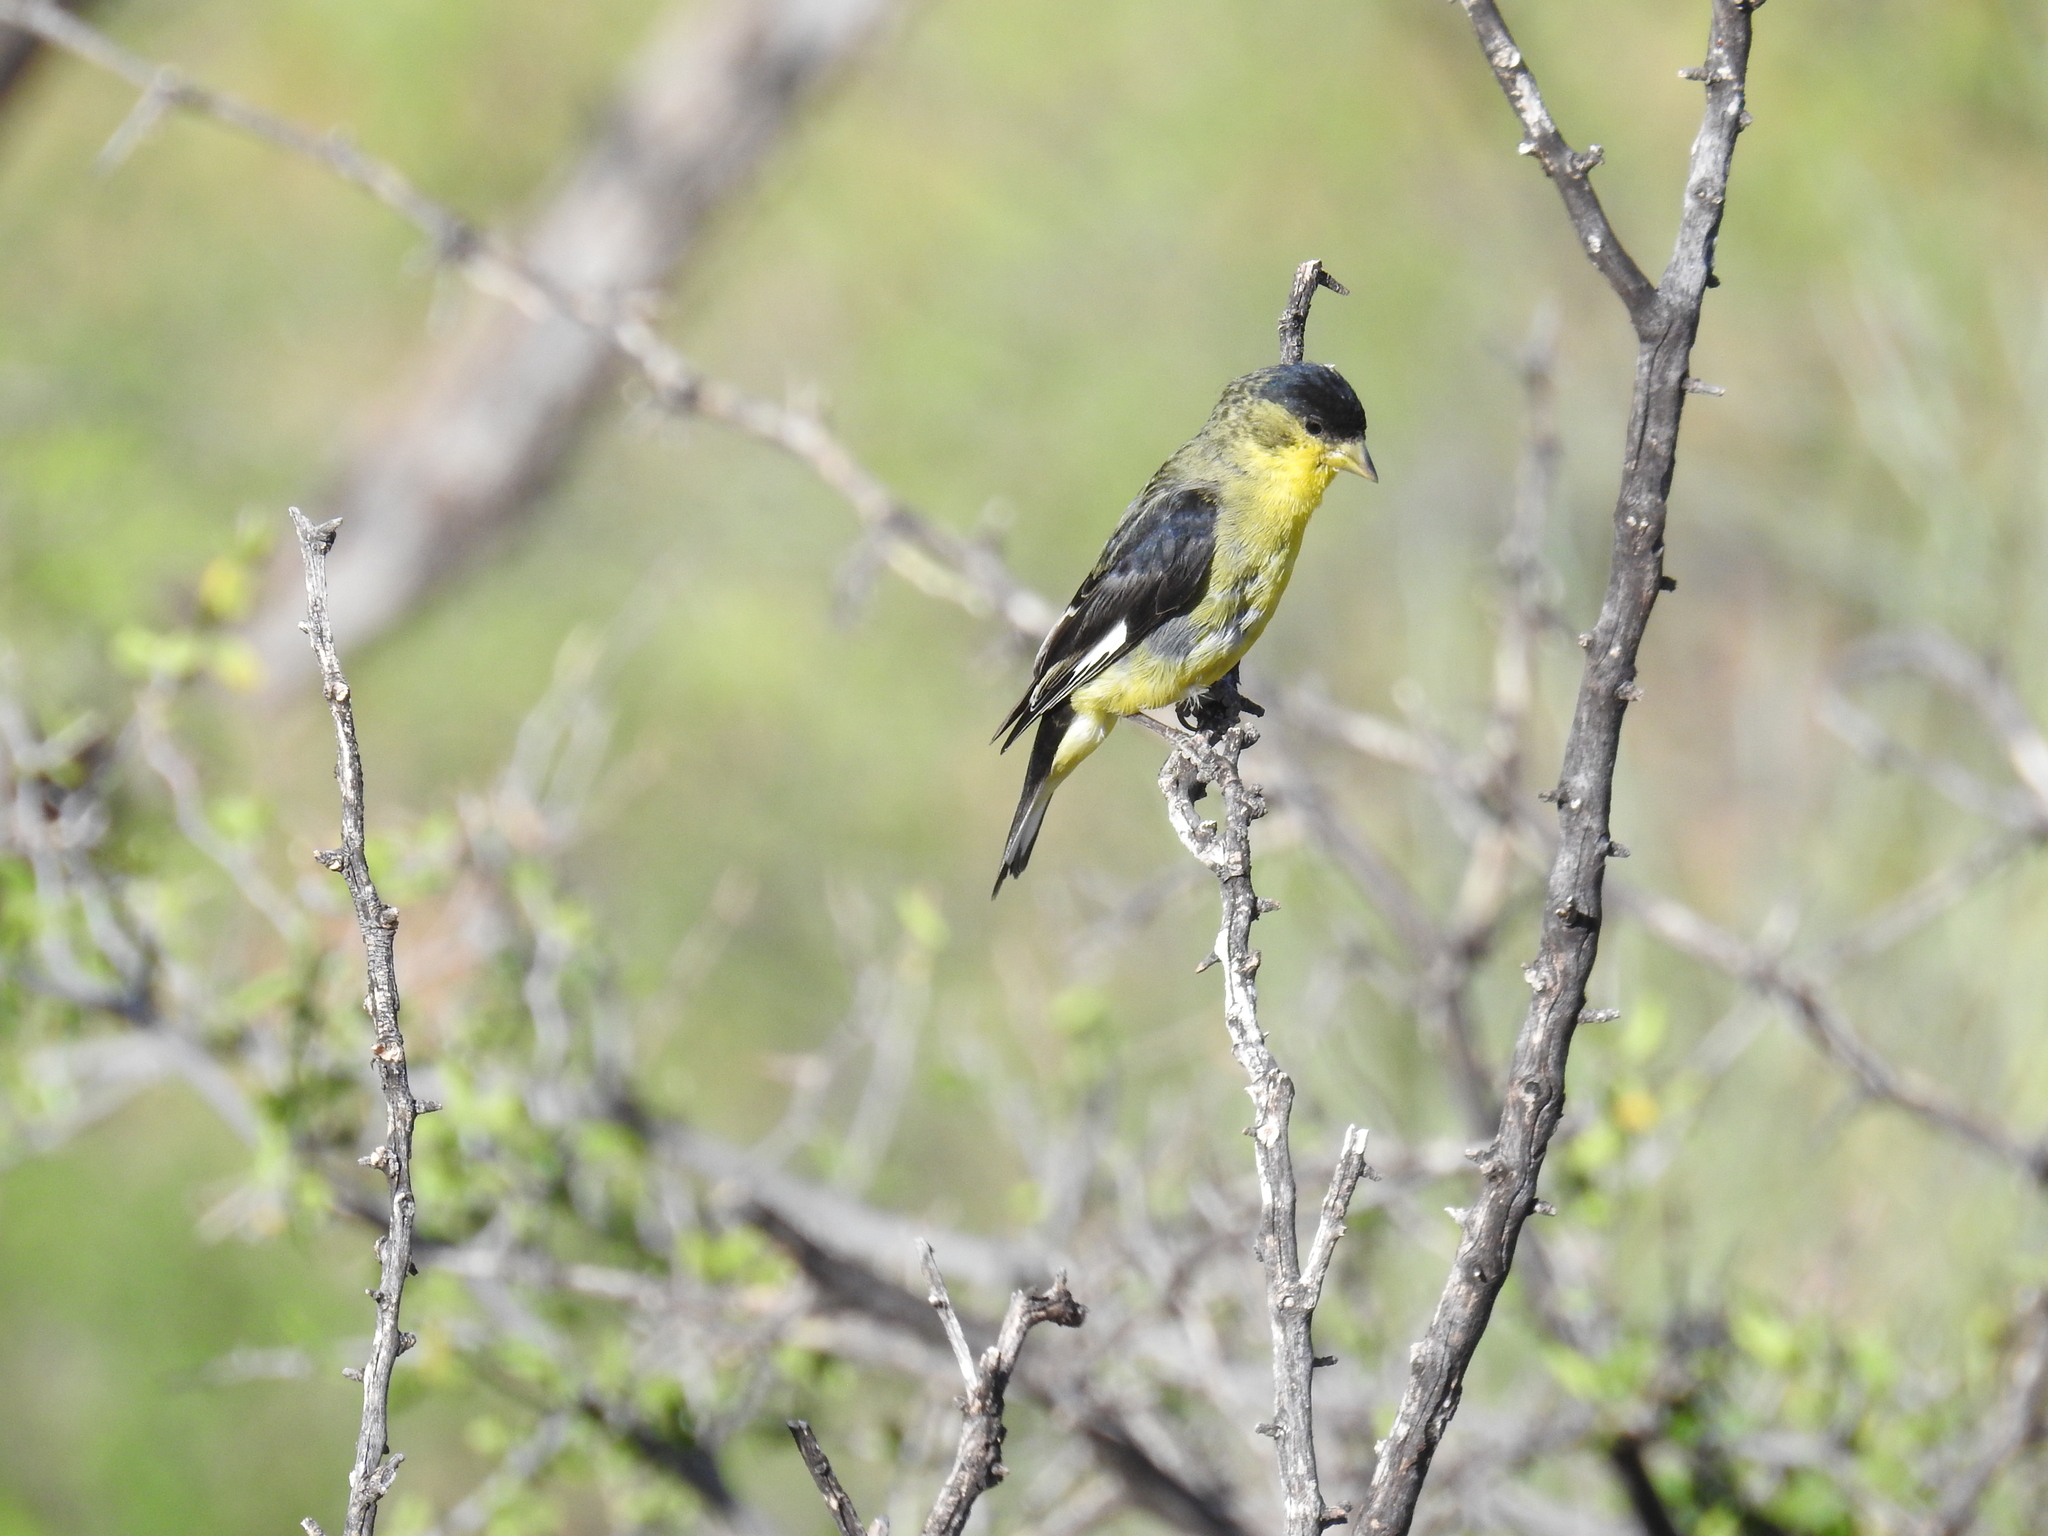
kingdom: Animalia
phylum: Chordata
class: Aves
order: Passeriformes
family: Fringillidae
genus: Spinus
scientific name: Spinus psaltria
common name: Lesser goldfinch
